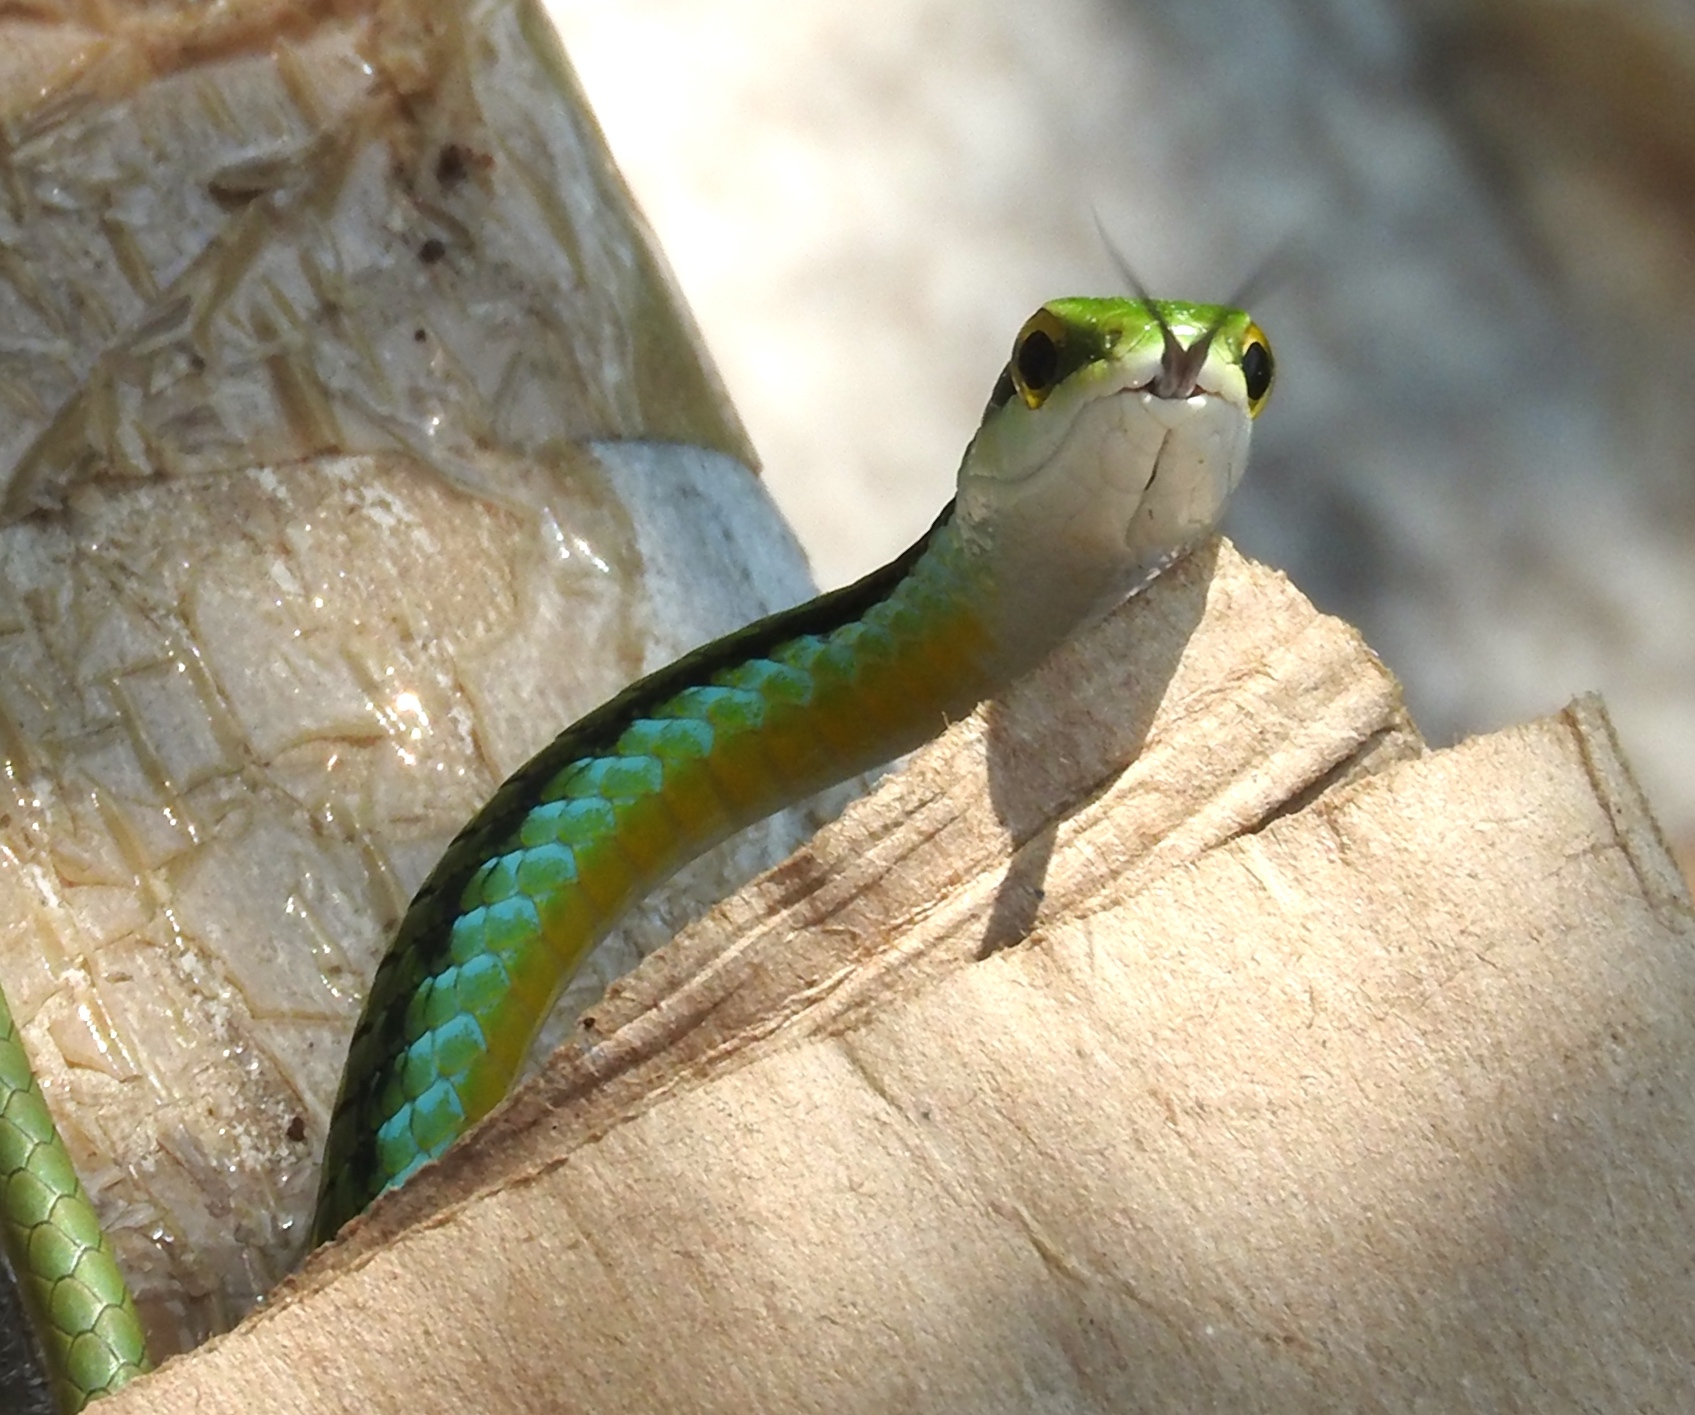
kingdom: Animalia
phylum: Chordata
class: Squamata
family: Colubridae
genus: Leptophis
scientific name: Leptophis diplotropis
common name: Pacific coast parrot snake
